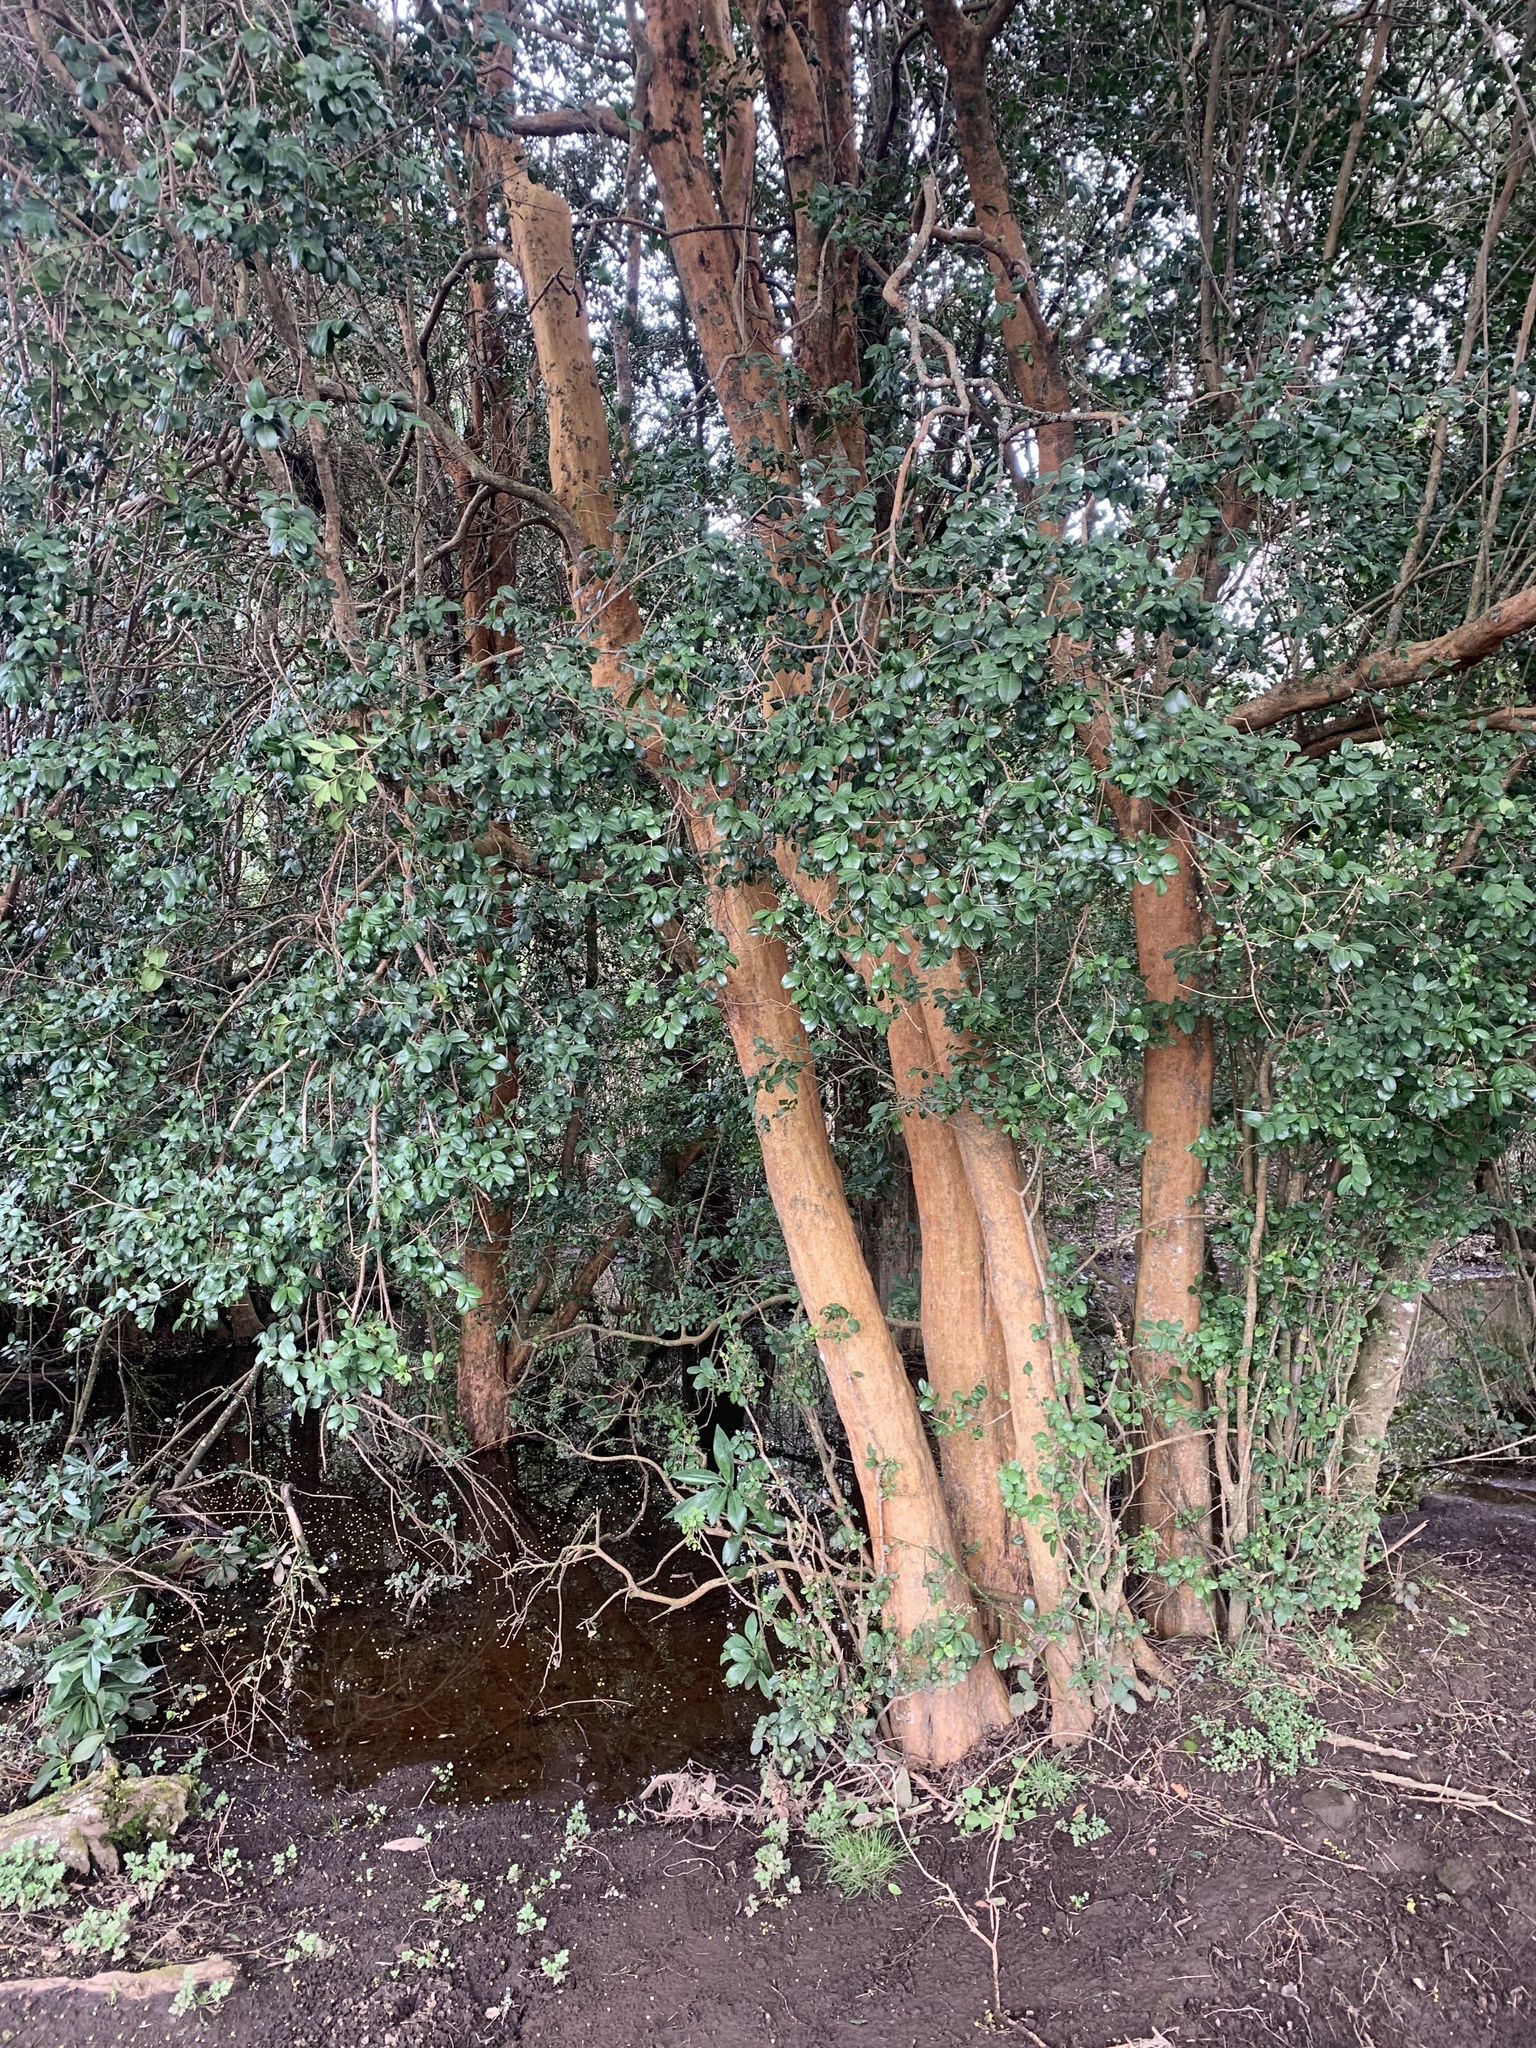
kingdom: Plantae
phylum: Tracheophyta
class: Magnoliopsida
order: Myrtales
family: Myrtaceae
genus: Blepharocalyx
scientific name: Blepharocalyx cruckshanksii
